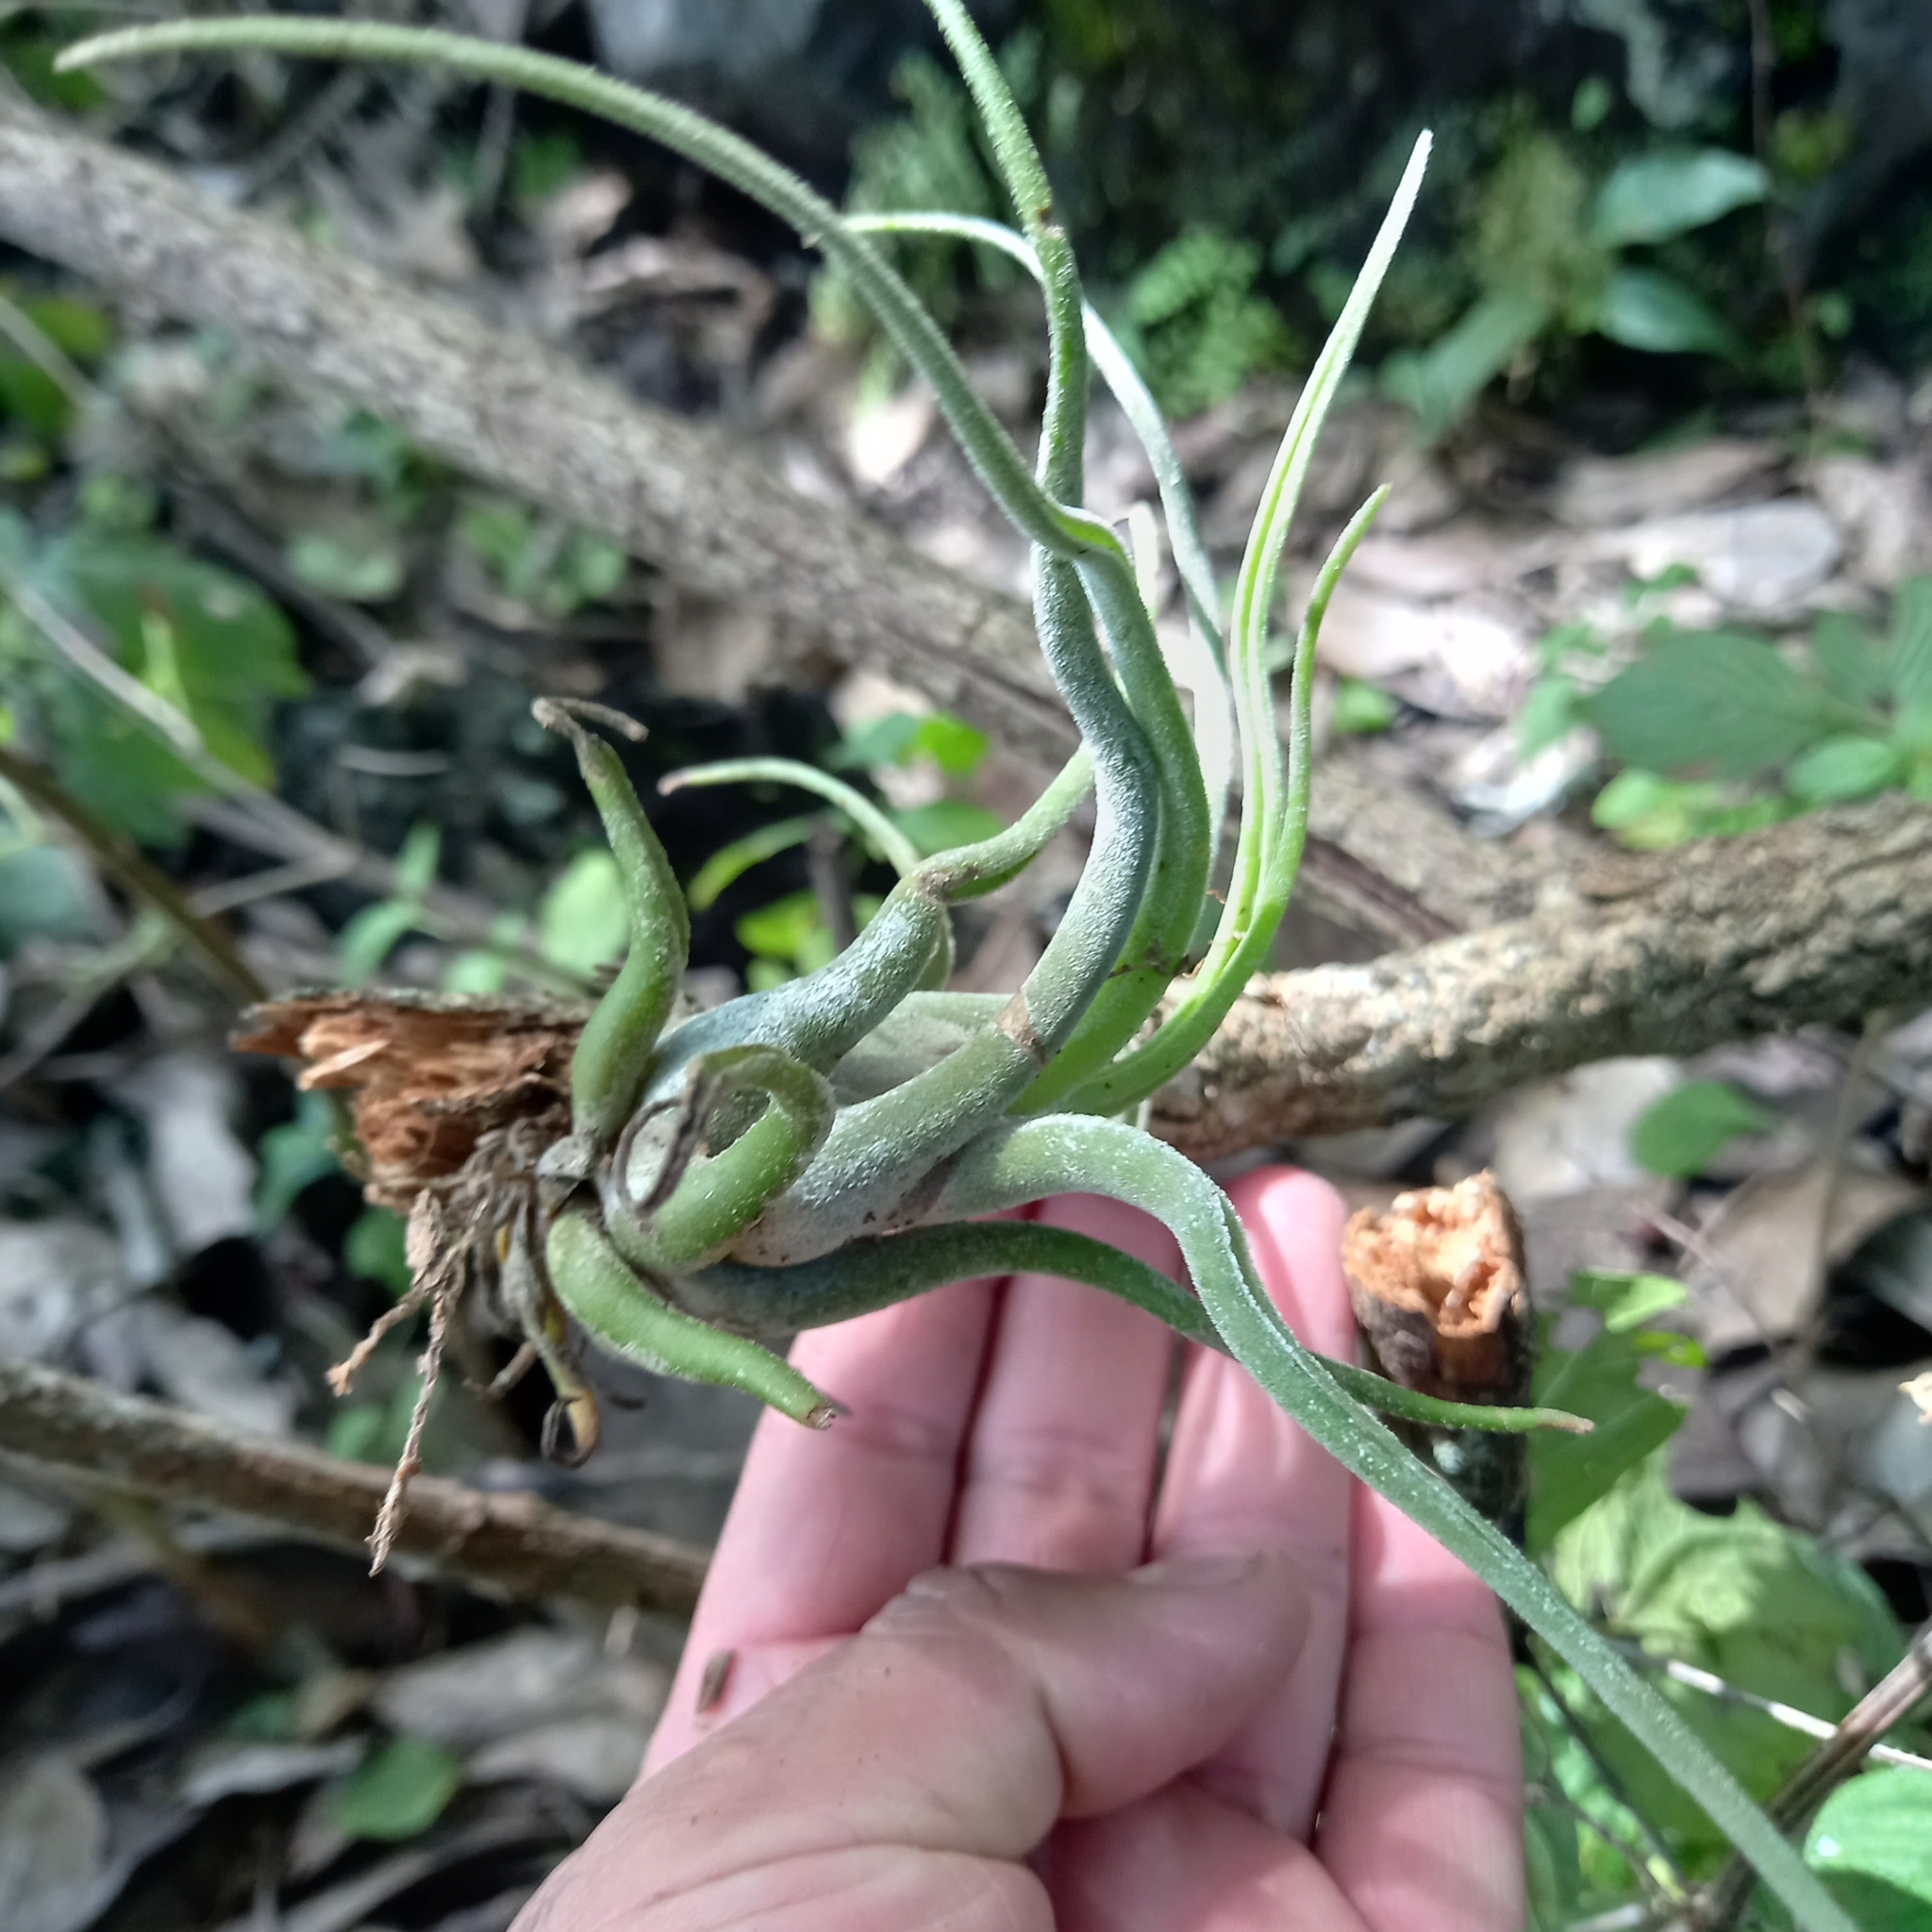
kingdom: Plantae
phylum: Tracheophyta
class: Liliopsida
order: Poales
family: Bromeliaceae
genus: Tillandsia
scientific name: Tillandsia caput-medusae
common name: Octopus plant
